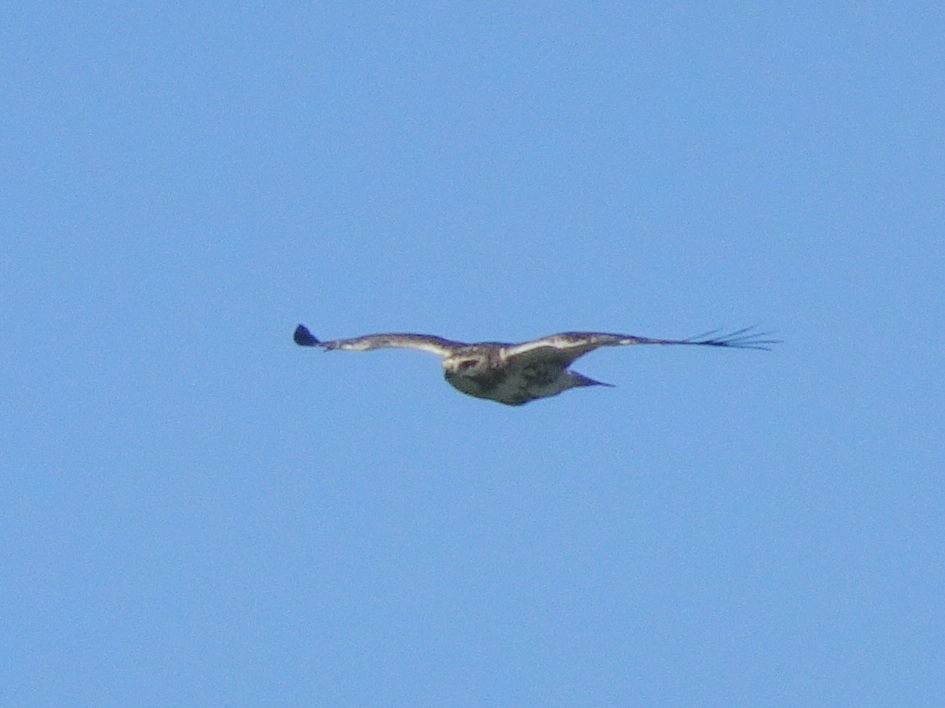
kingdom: Animalia
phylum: Chordata
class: Aves
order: Accipitriformes
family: Accipitridae
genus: Buteo
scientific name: Buteo jamaicensis
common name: Red-tailed hawk
